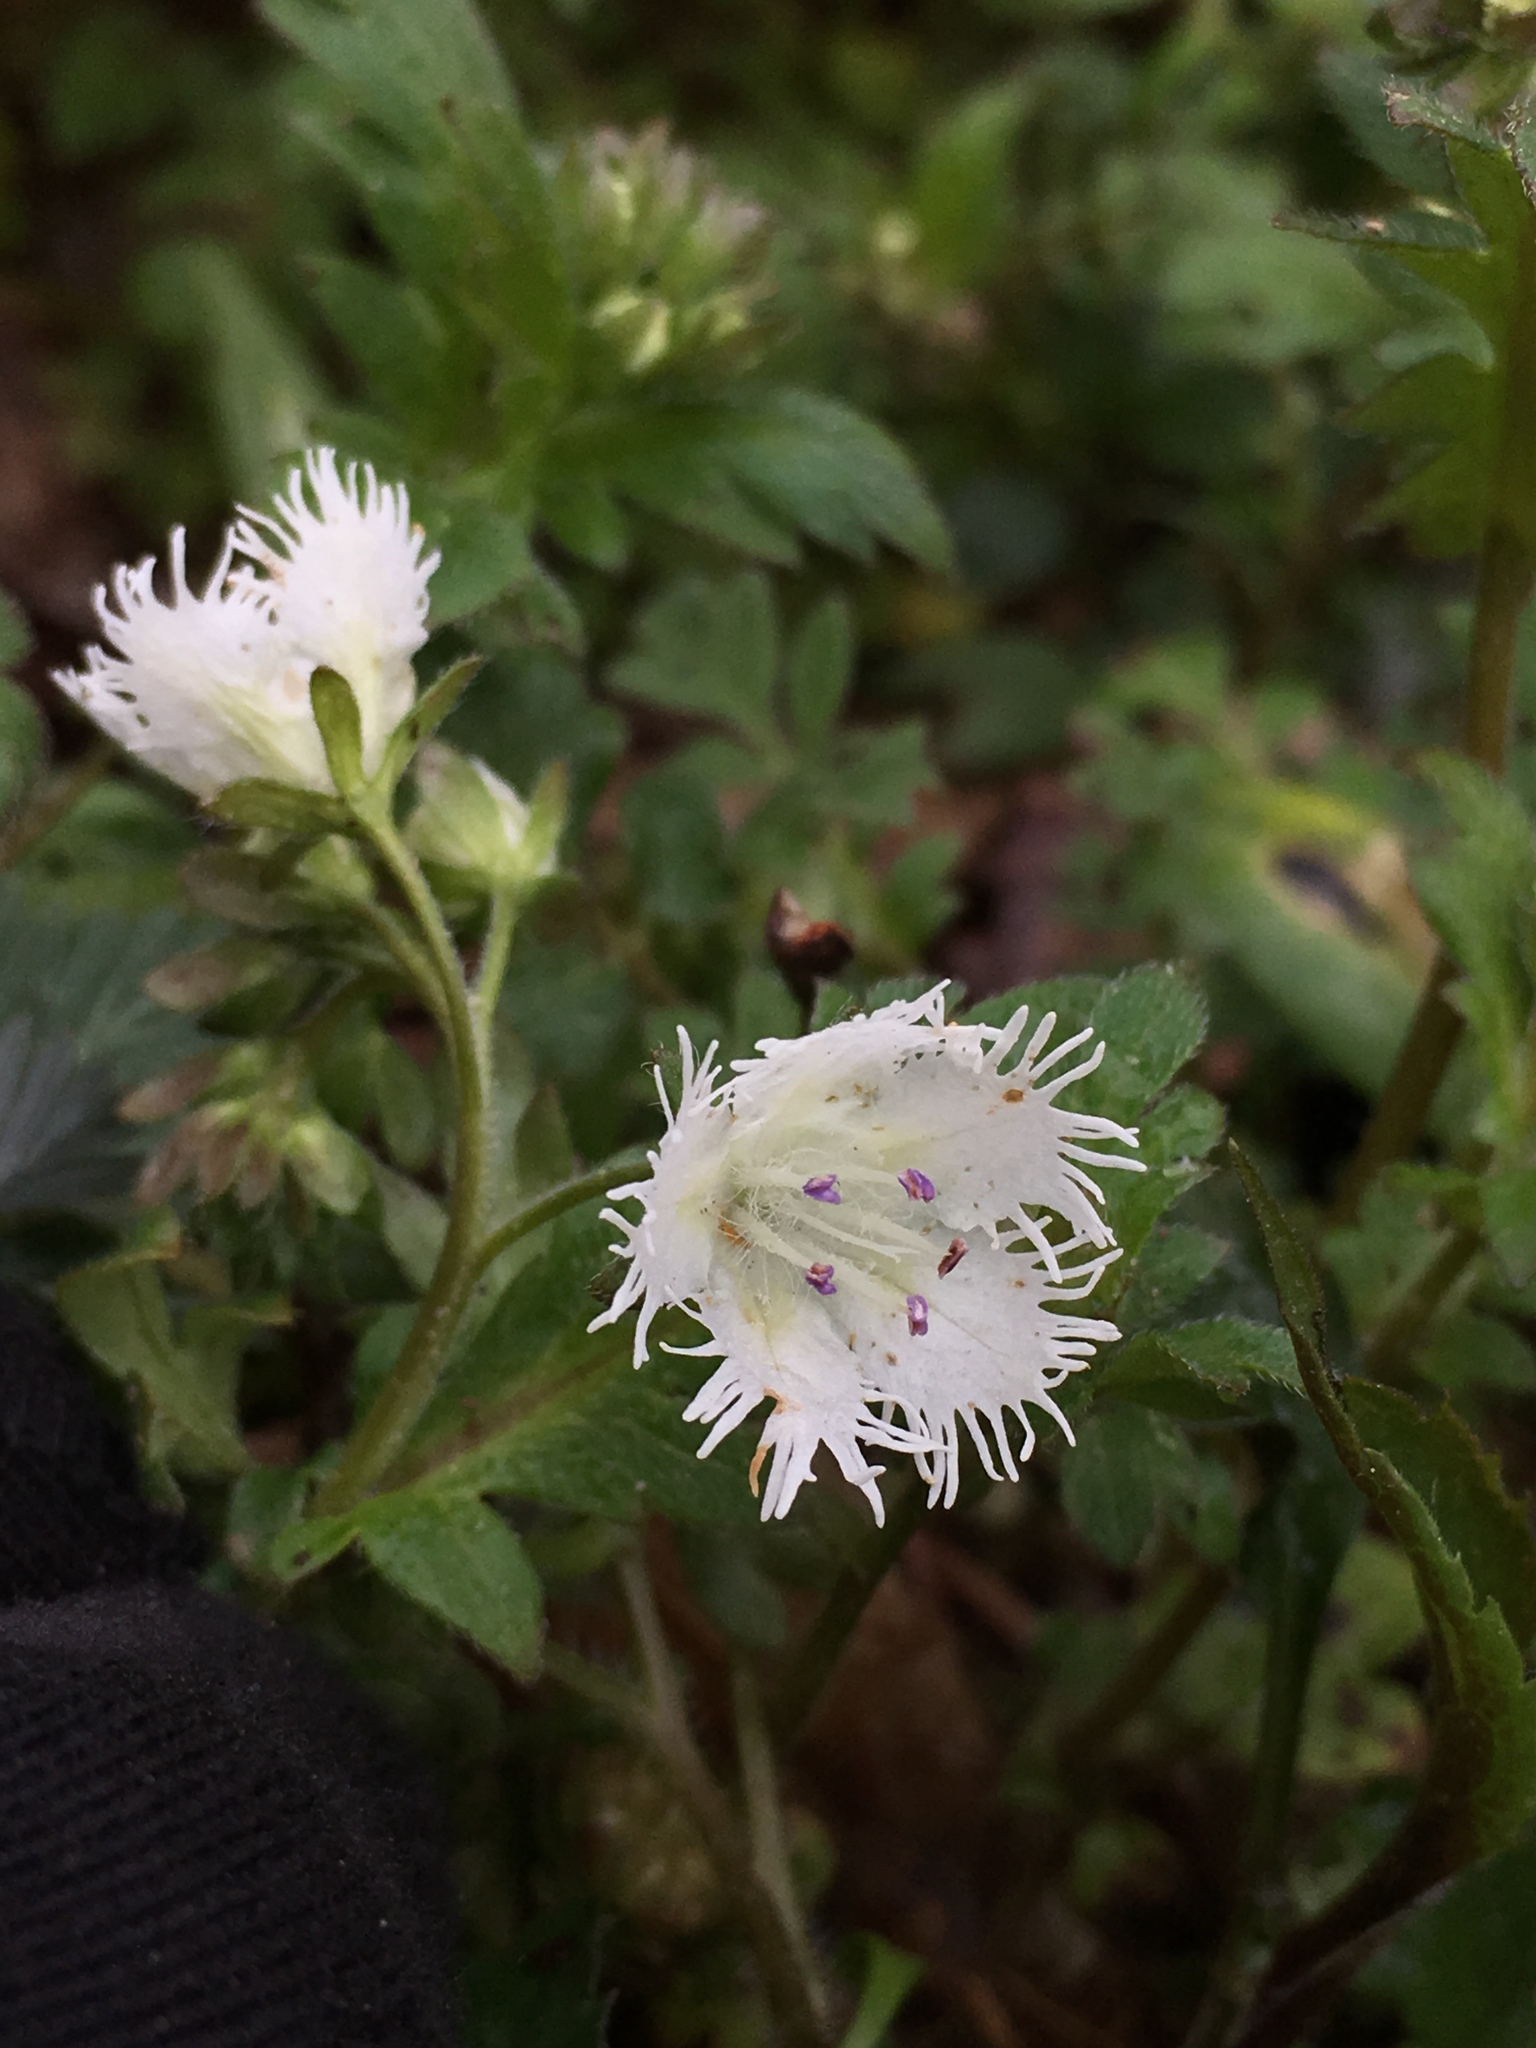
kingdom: Plantae
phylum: Tracheophyta
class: Magnoliopsida
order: Boraginales
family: Hydrophyllaceae
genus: Phacelia
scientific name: Phacelia fimbriata
